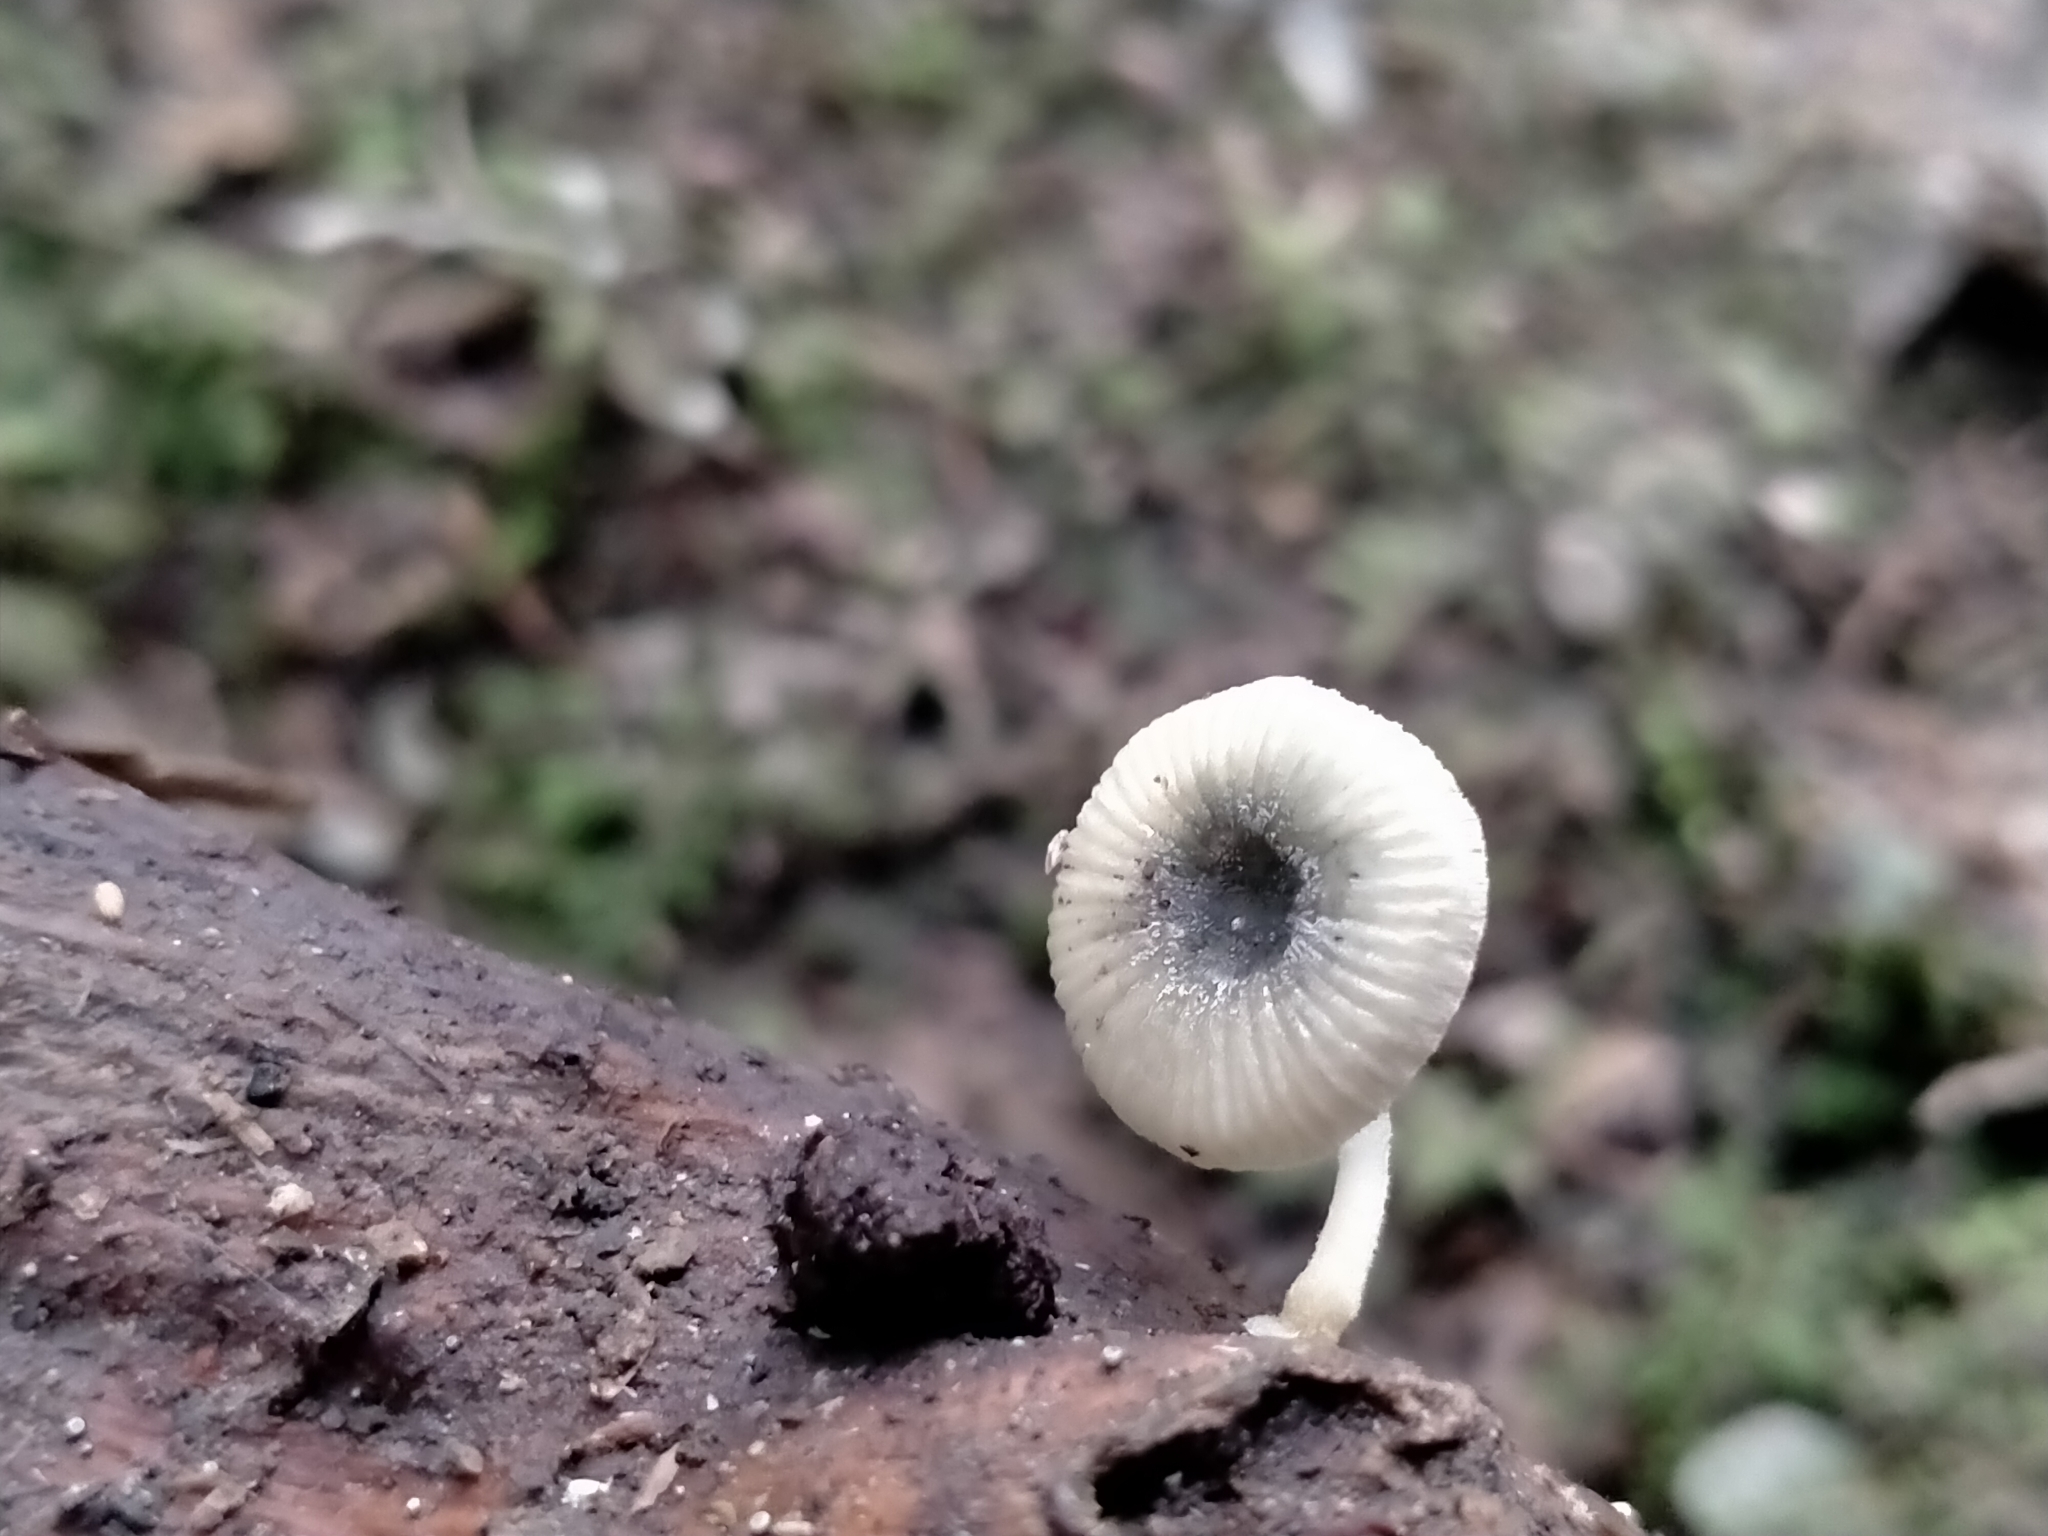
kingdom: Fungi
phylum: Basidiomycota
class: Agaricomycetes
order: Agaricales
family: Mycenaceae
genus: Mycena
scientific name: Mycena interrupta
